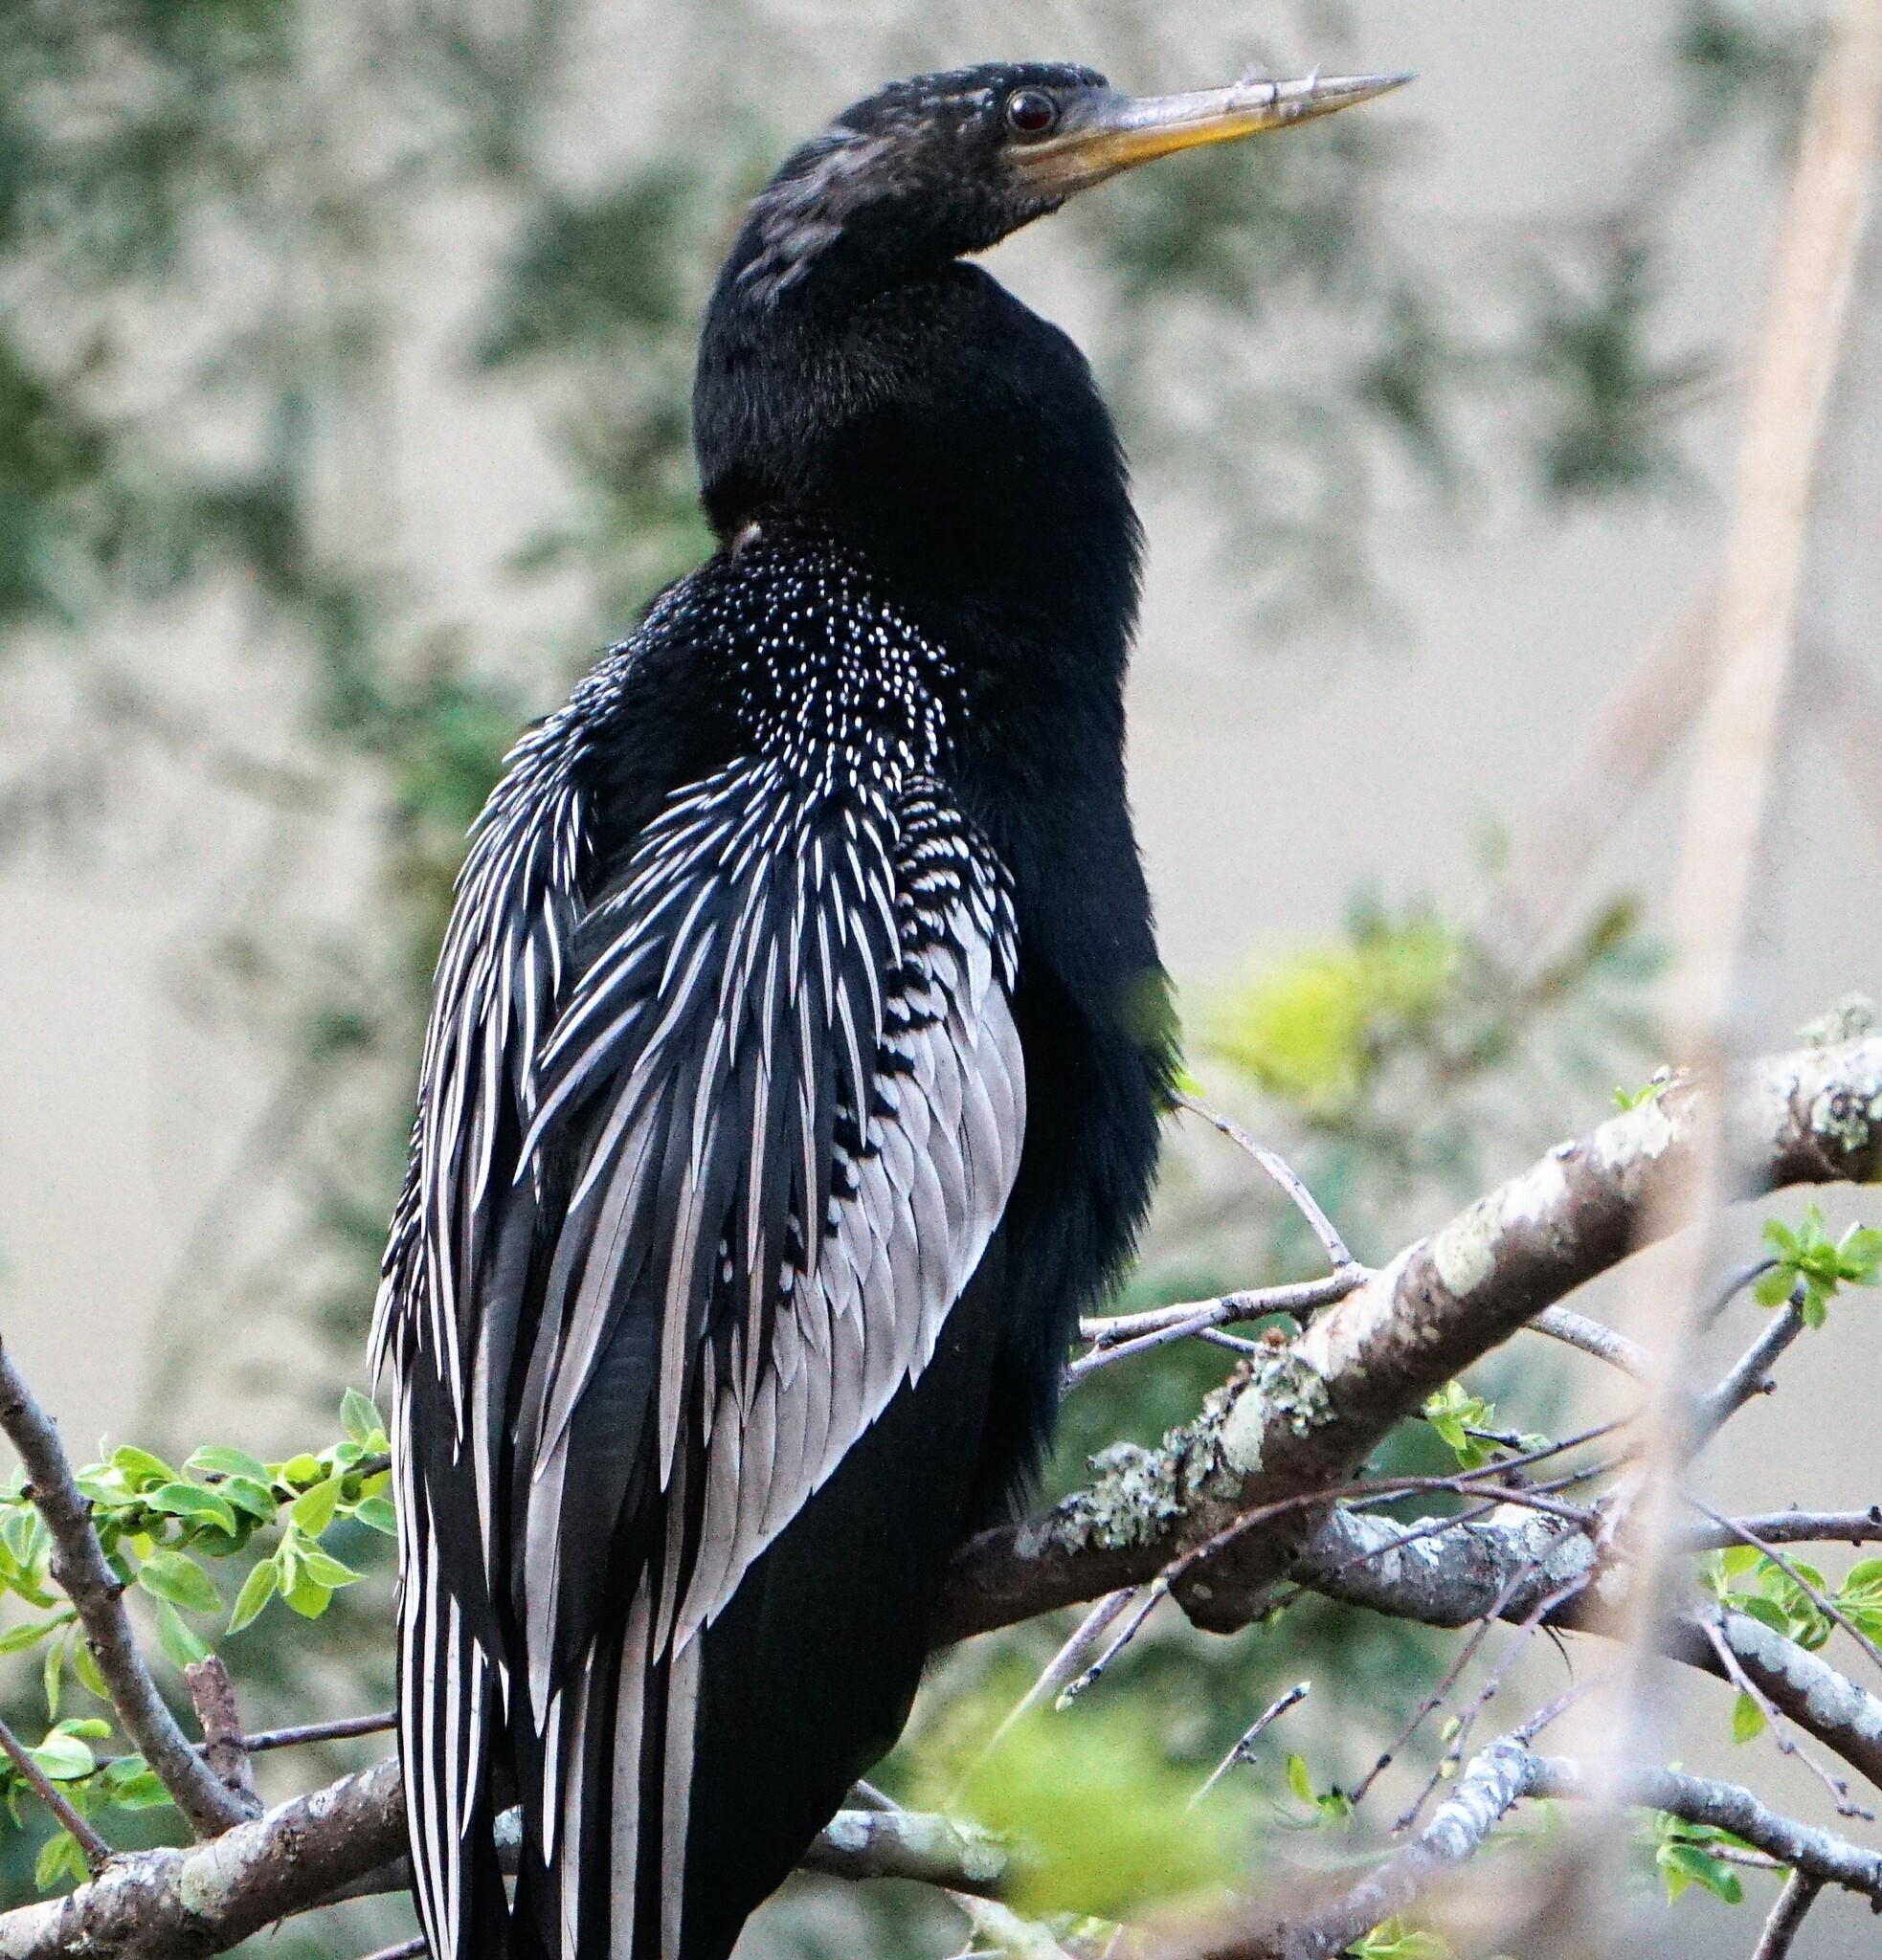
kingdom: Animalia
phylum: Chordata
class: Aves
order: Suliformes
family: Anhingidae
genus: Anhinga
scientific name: Anhinga anhinga
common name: Anhinga
